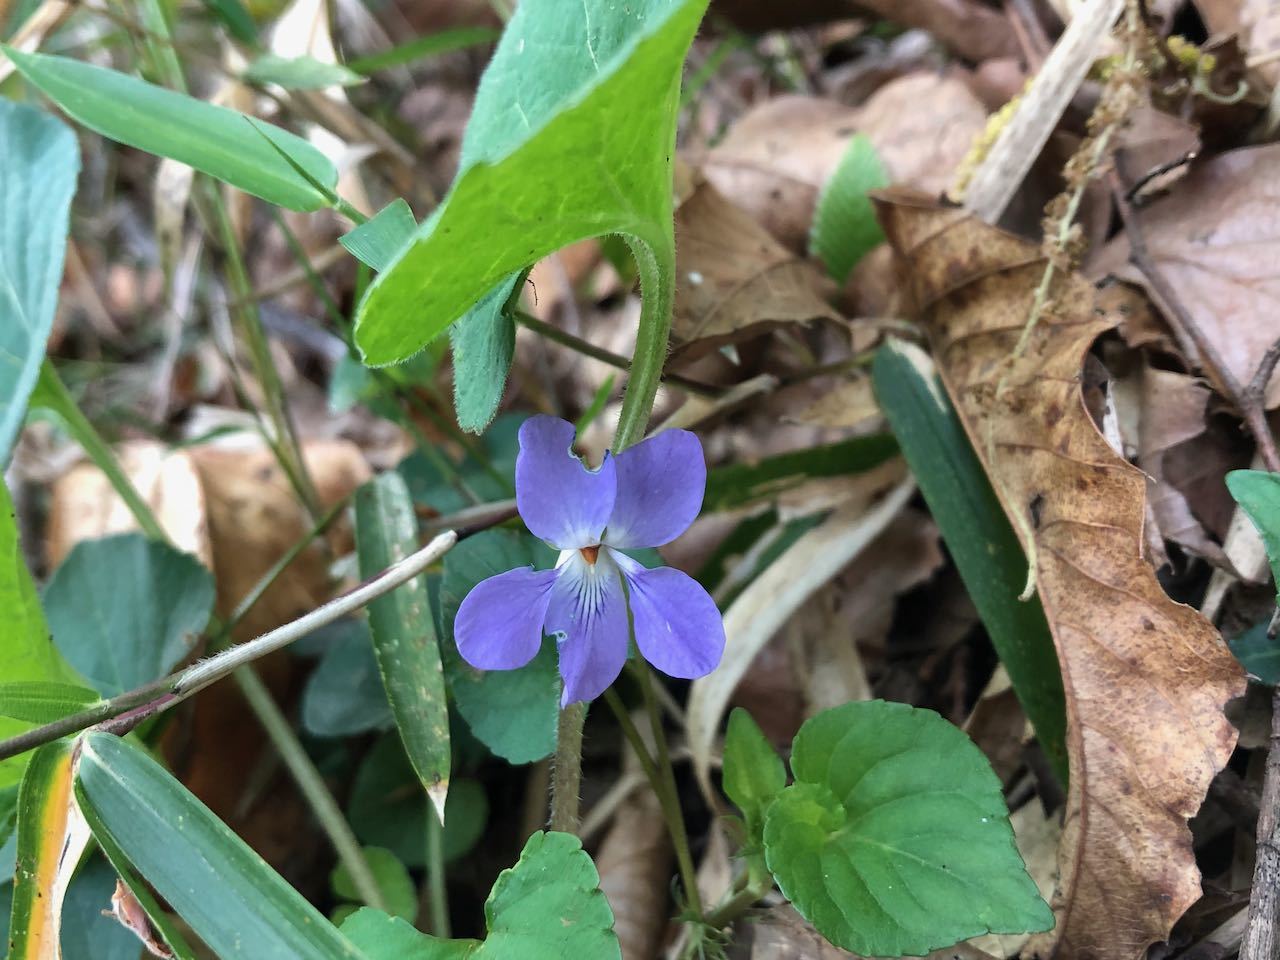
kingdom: Plantae
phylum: Tracheophyta
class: Magnoliopsida
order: Malpighiales
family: Violaceae
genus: Viola
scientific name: Viola grypoceras
